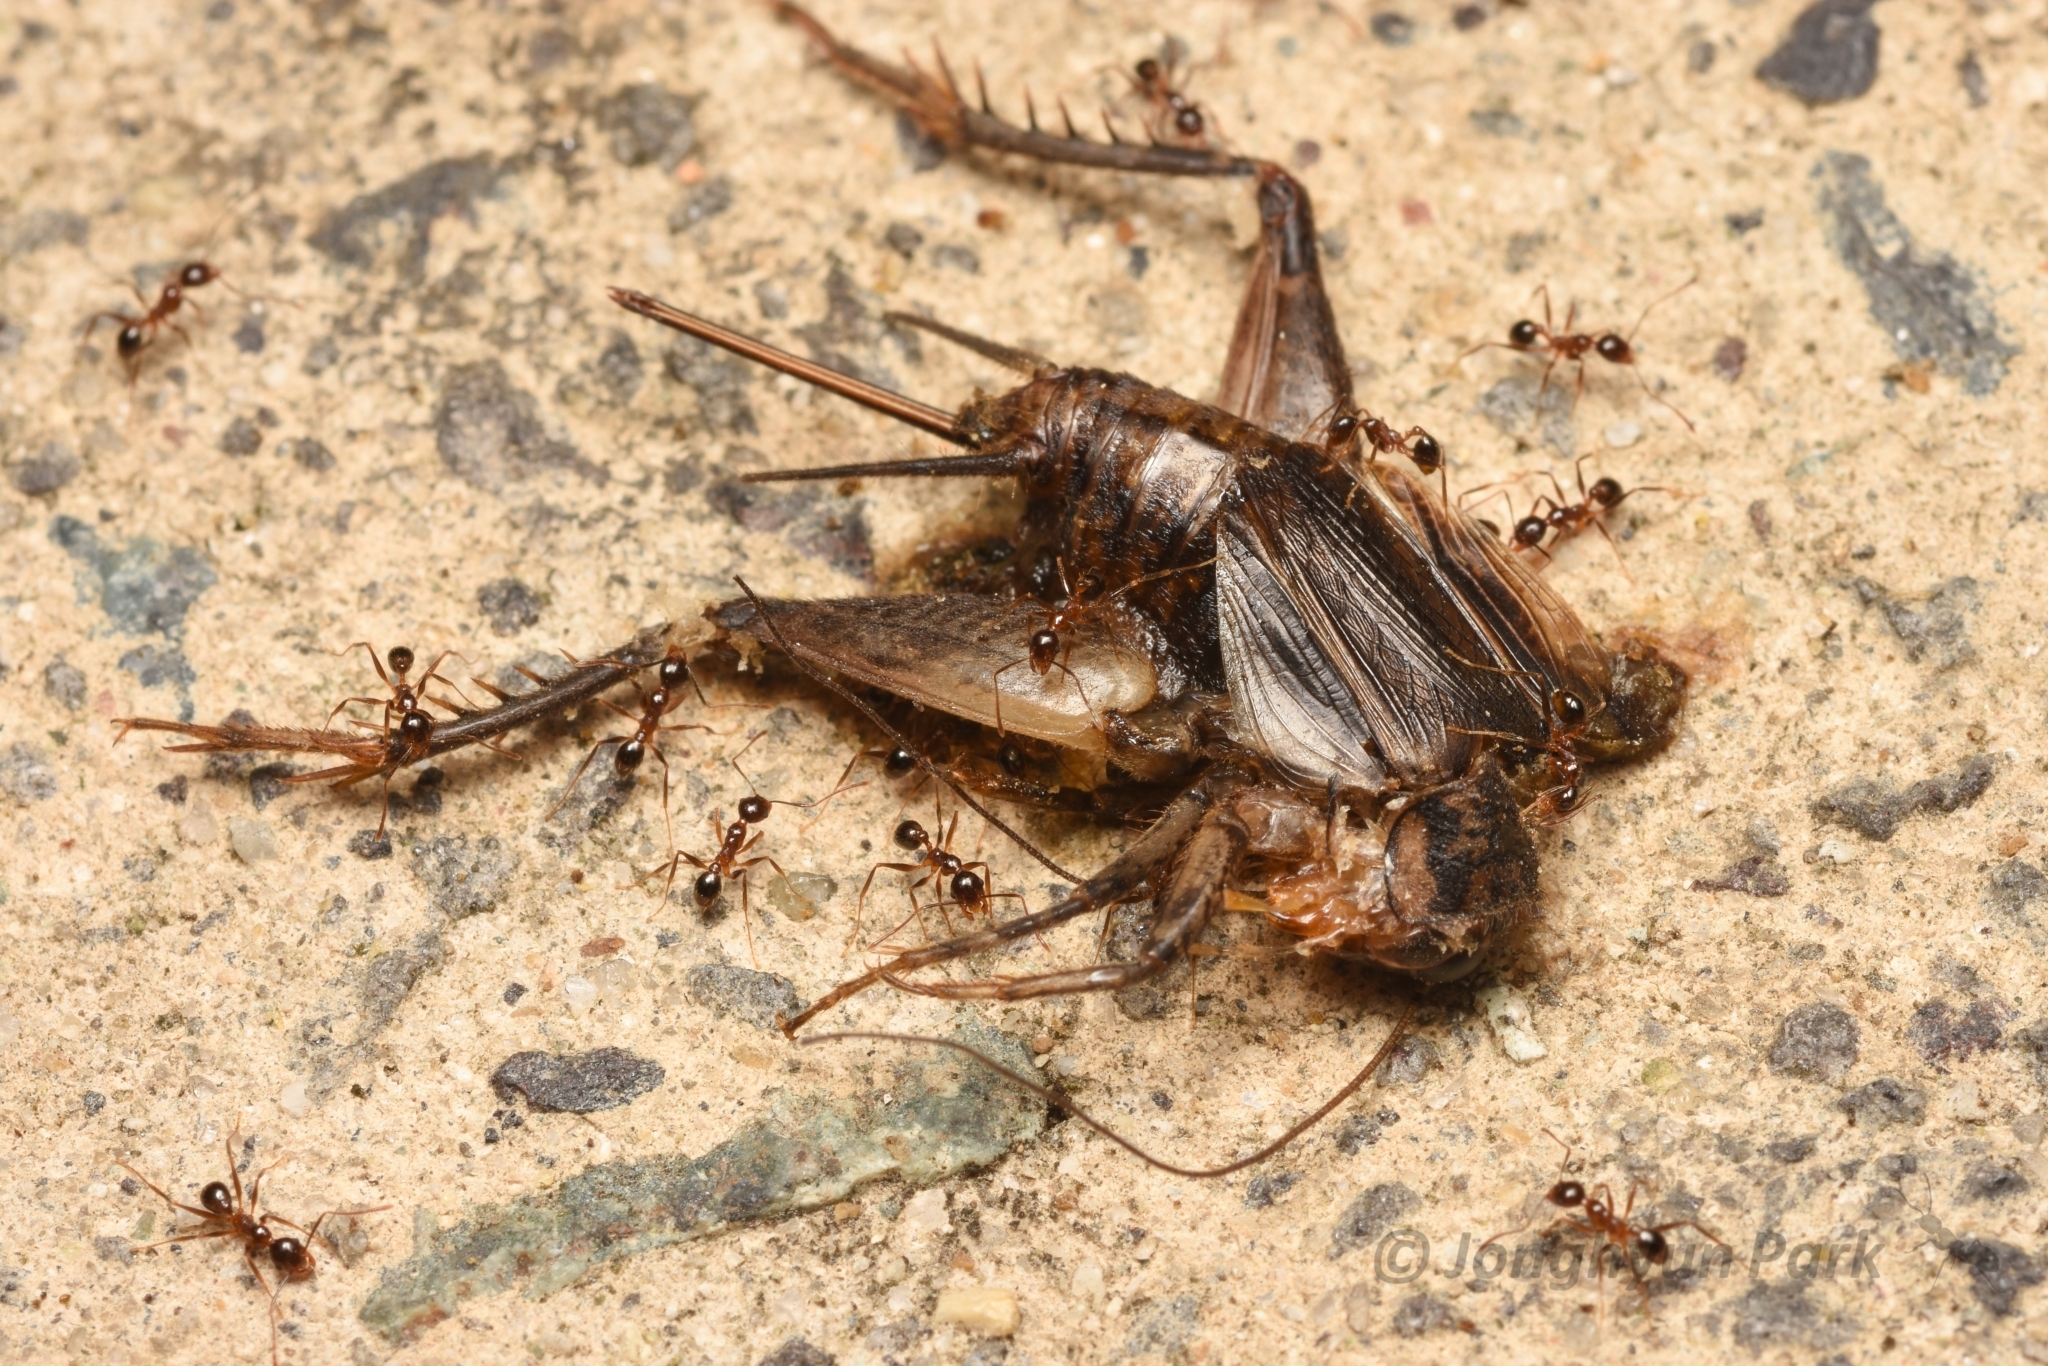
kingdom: Animalia
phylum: Arthropoda
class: Insecta
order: Hymenoptera
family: Formicidae
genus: Pheidole
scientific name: Pheidole noda
